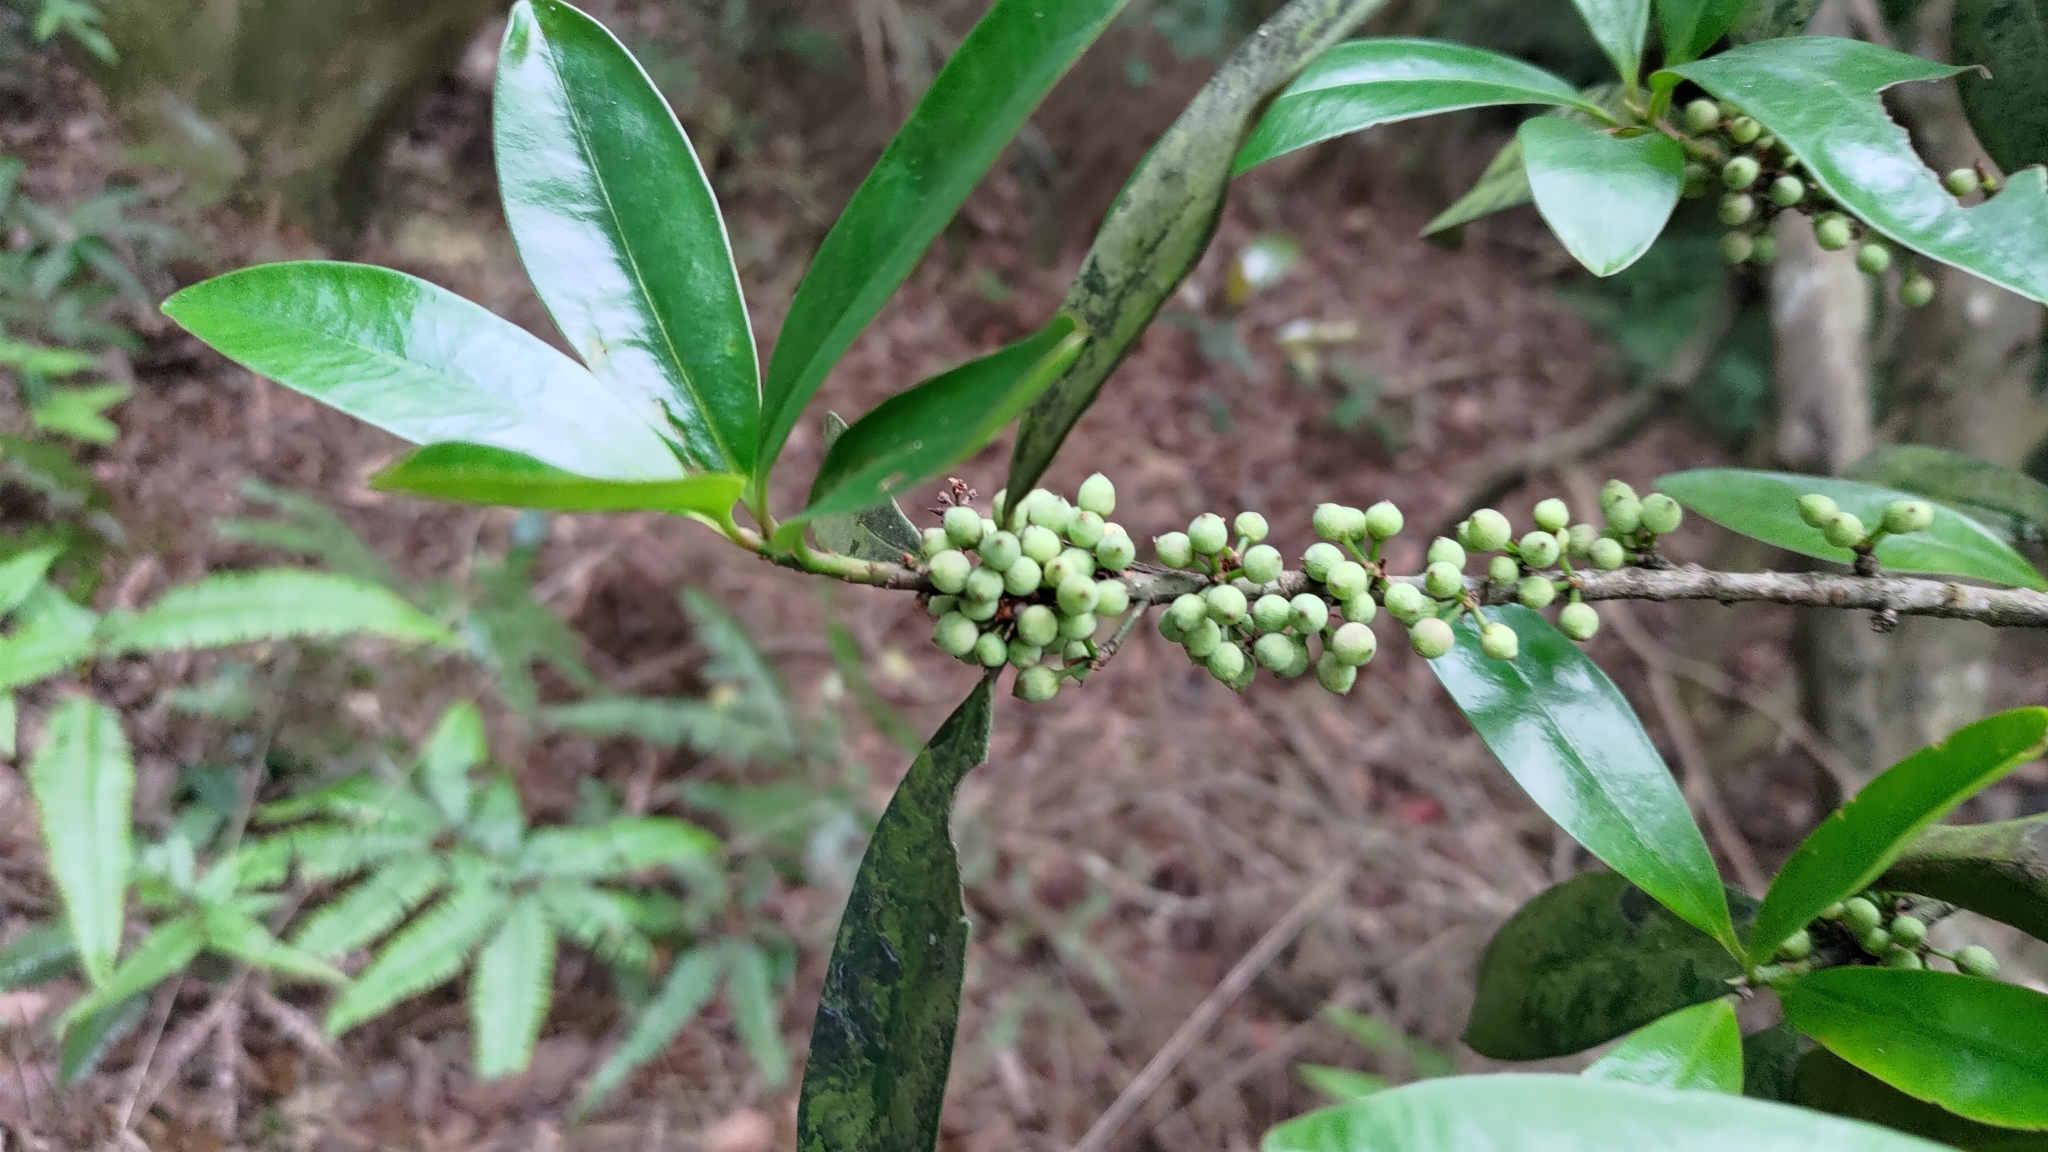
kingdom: Plantae
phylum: Tracheophyta
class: Magnoliopsida
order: Ericales
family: Primulaceae
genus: Myrsine
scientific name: Myrsine seguinii
